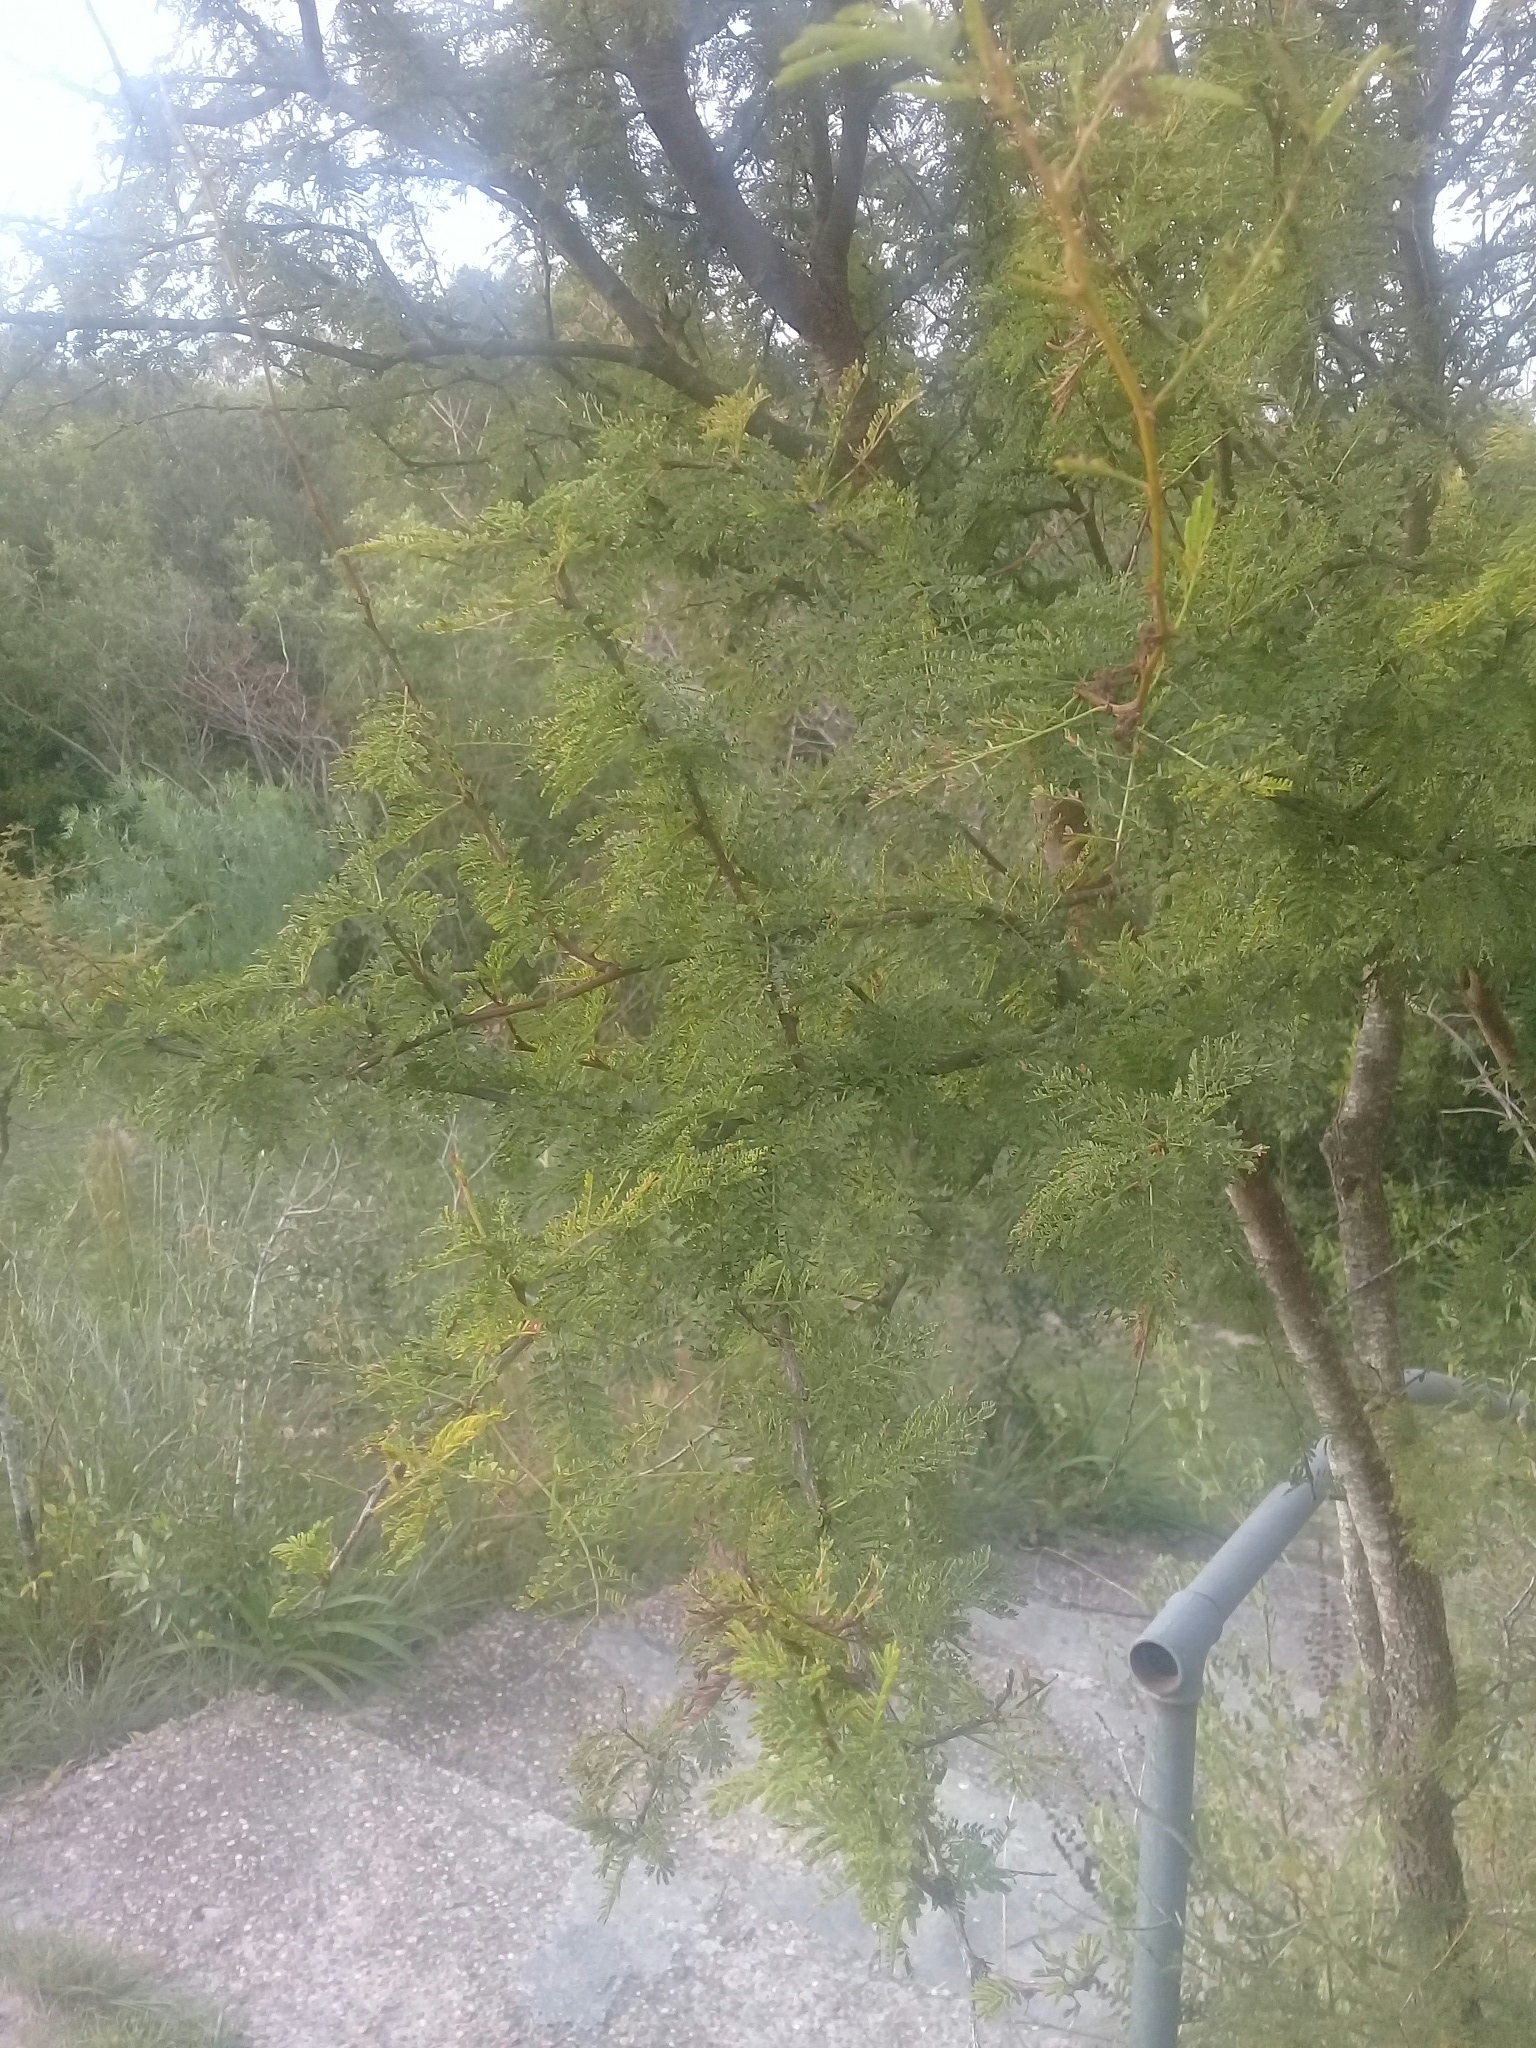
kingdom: Plantae
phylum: Tracheophyta
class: Magnoliopsida
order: Fabales
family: Fabaceae
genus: Vachellia
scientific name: Vachellia caven
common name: Roman cassie
